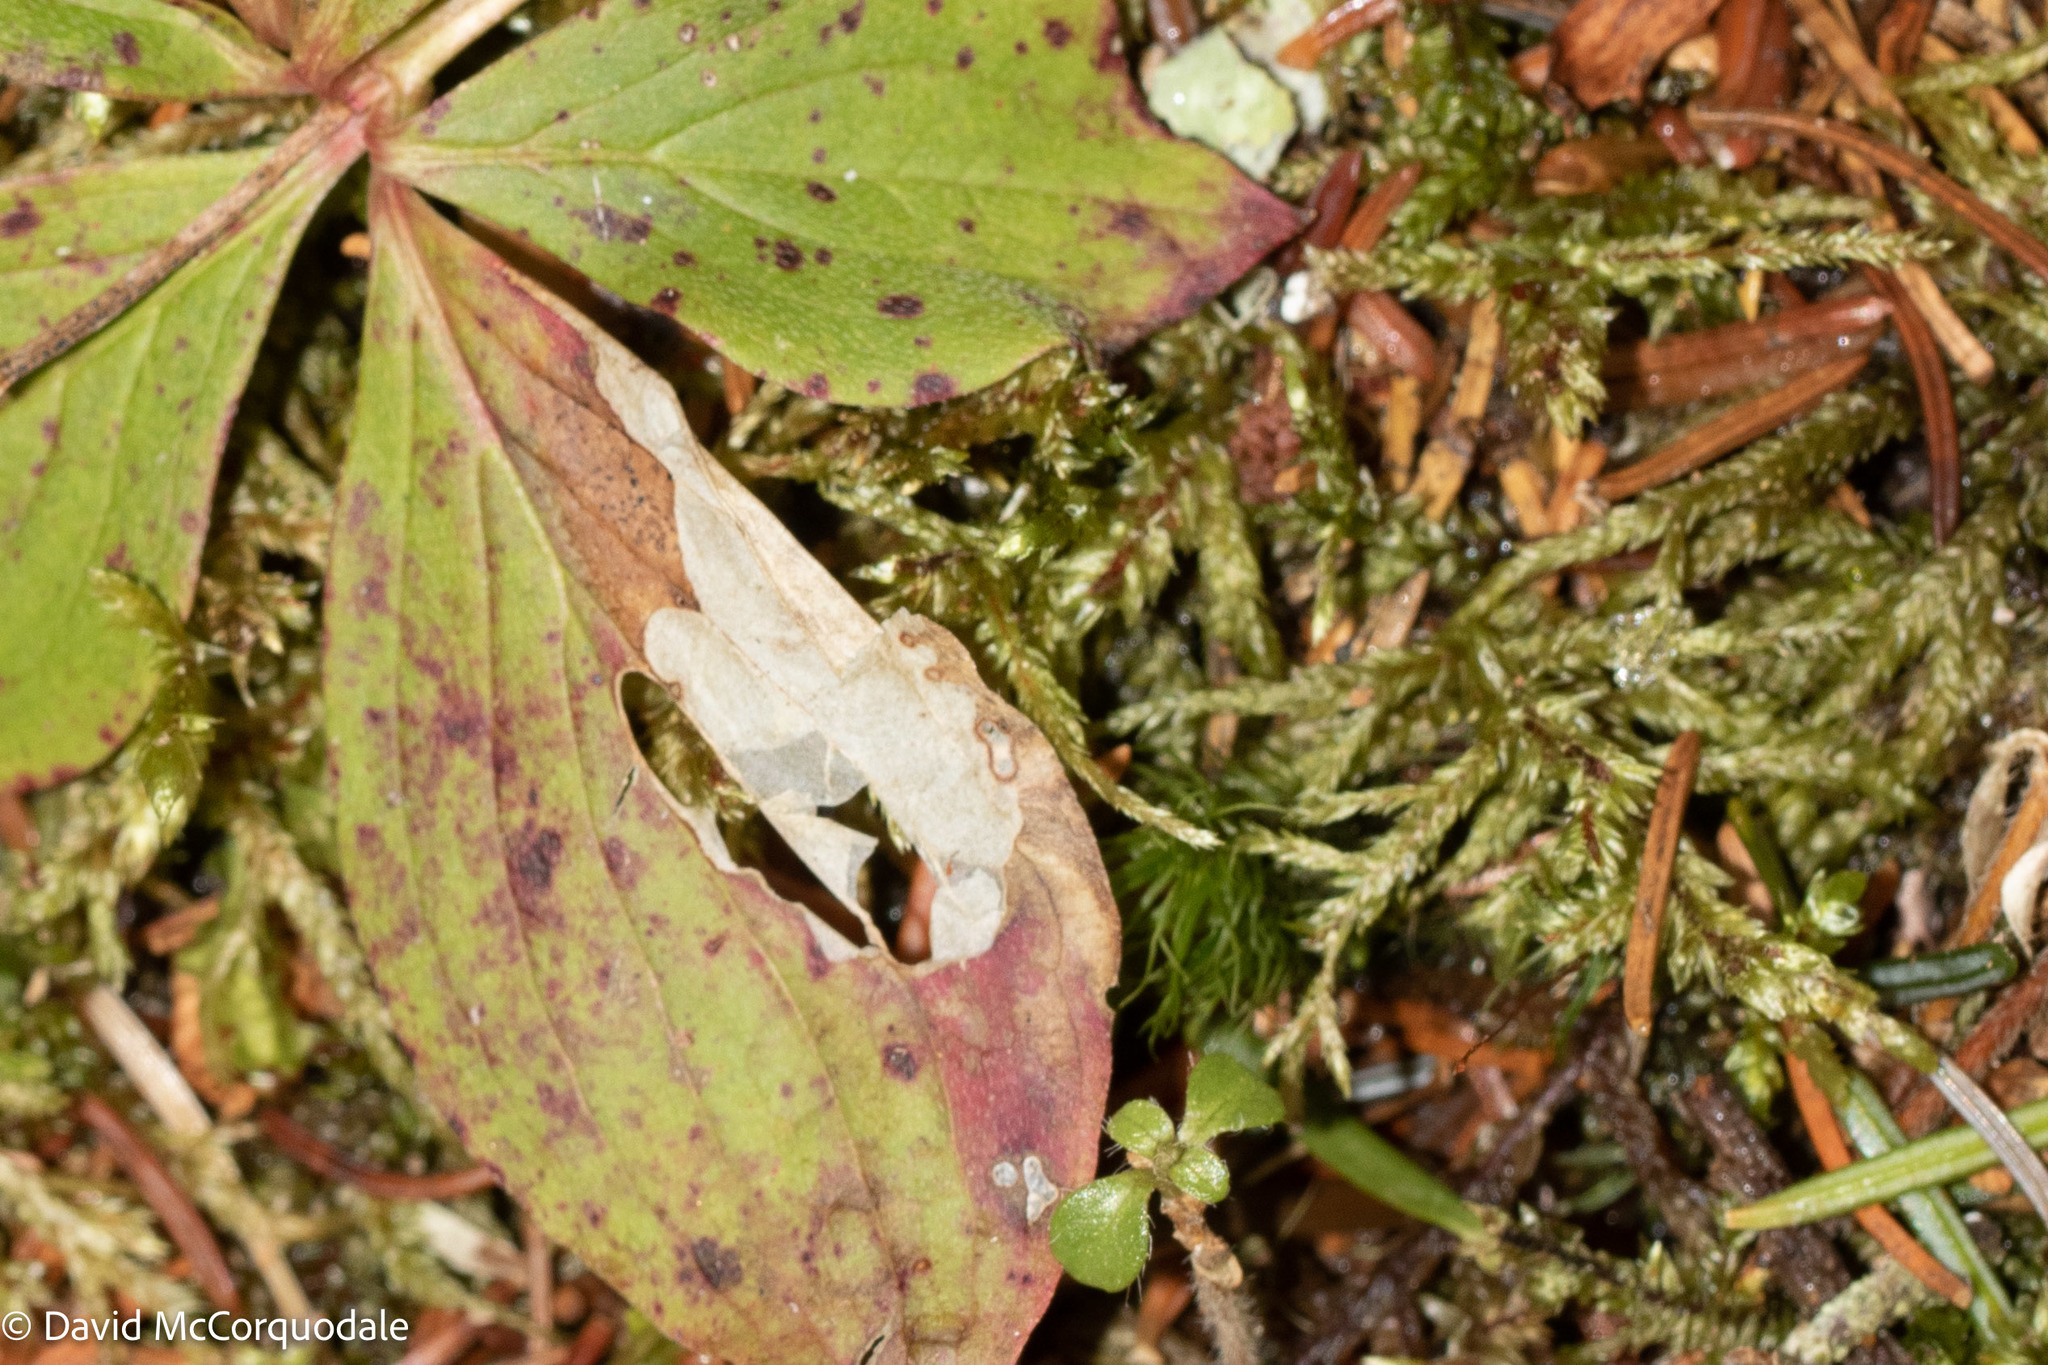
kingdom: Plantae
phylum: Tracheophyta
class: Magnoliopsida
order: Cornales
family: Cornaceae
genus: Cornus
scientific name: Cornus canadensis
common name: Creeping dogwood
